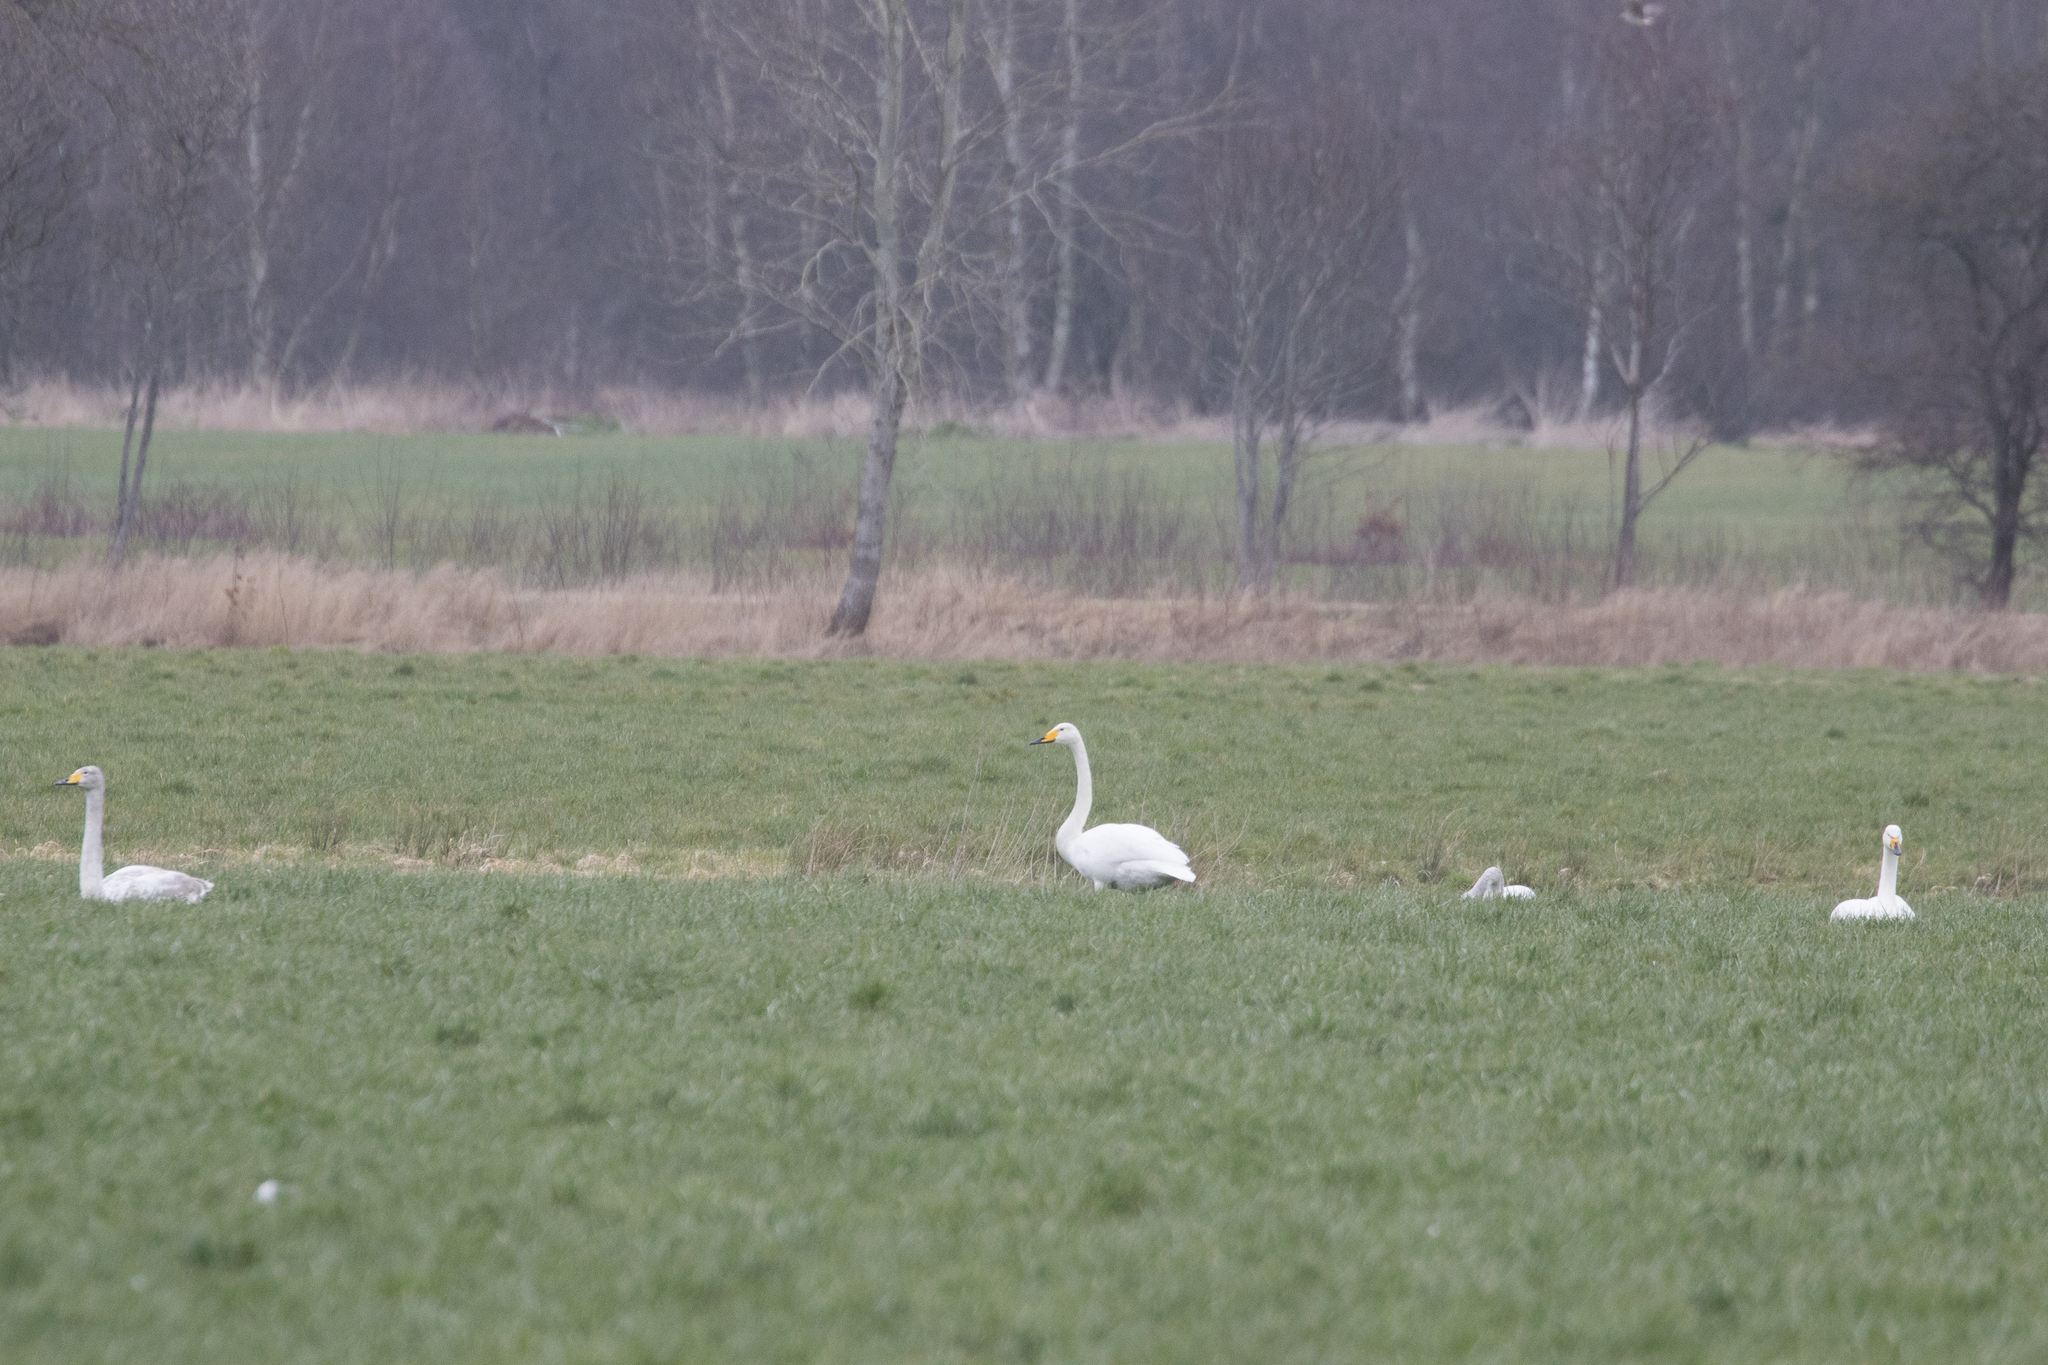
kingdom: Animalia
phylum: Chordata
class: Aves
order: Anseriformes
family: Anatidae
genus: Cygnus
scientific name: Cygnus cygnus
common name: Whooper swan
